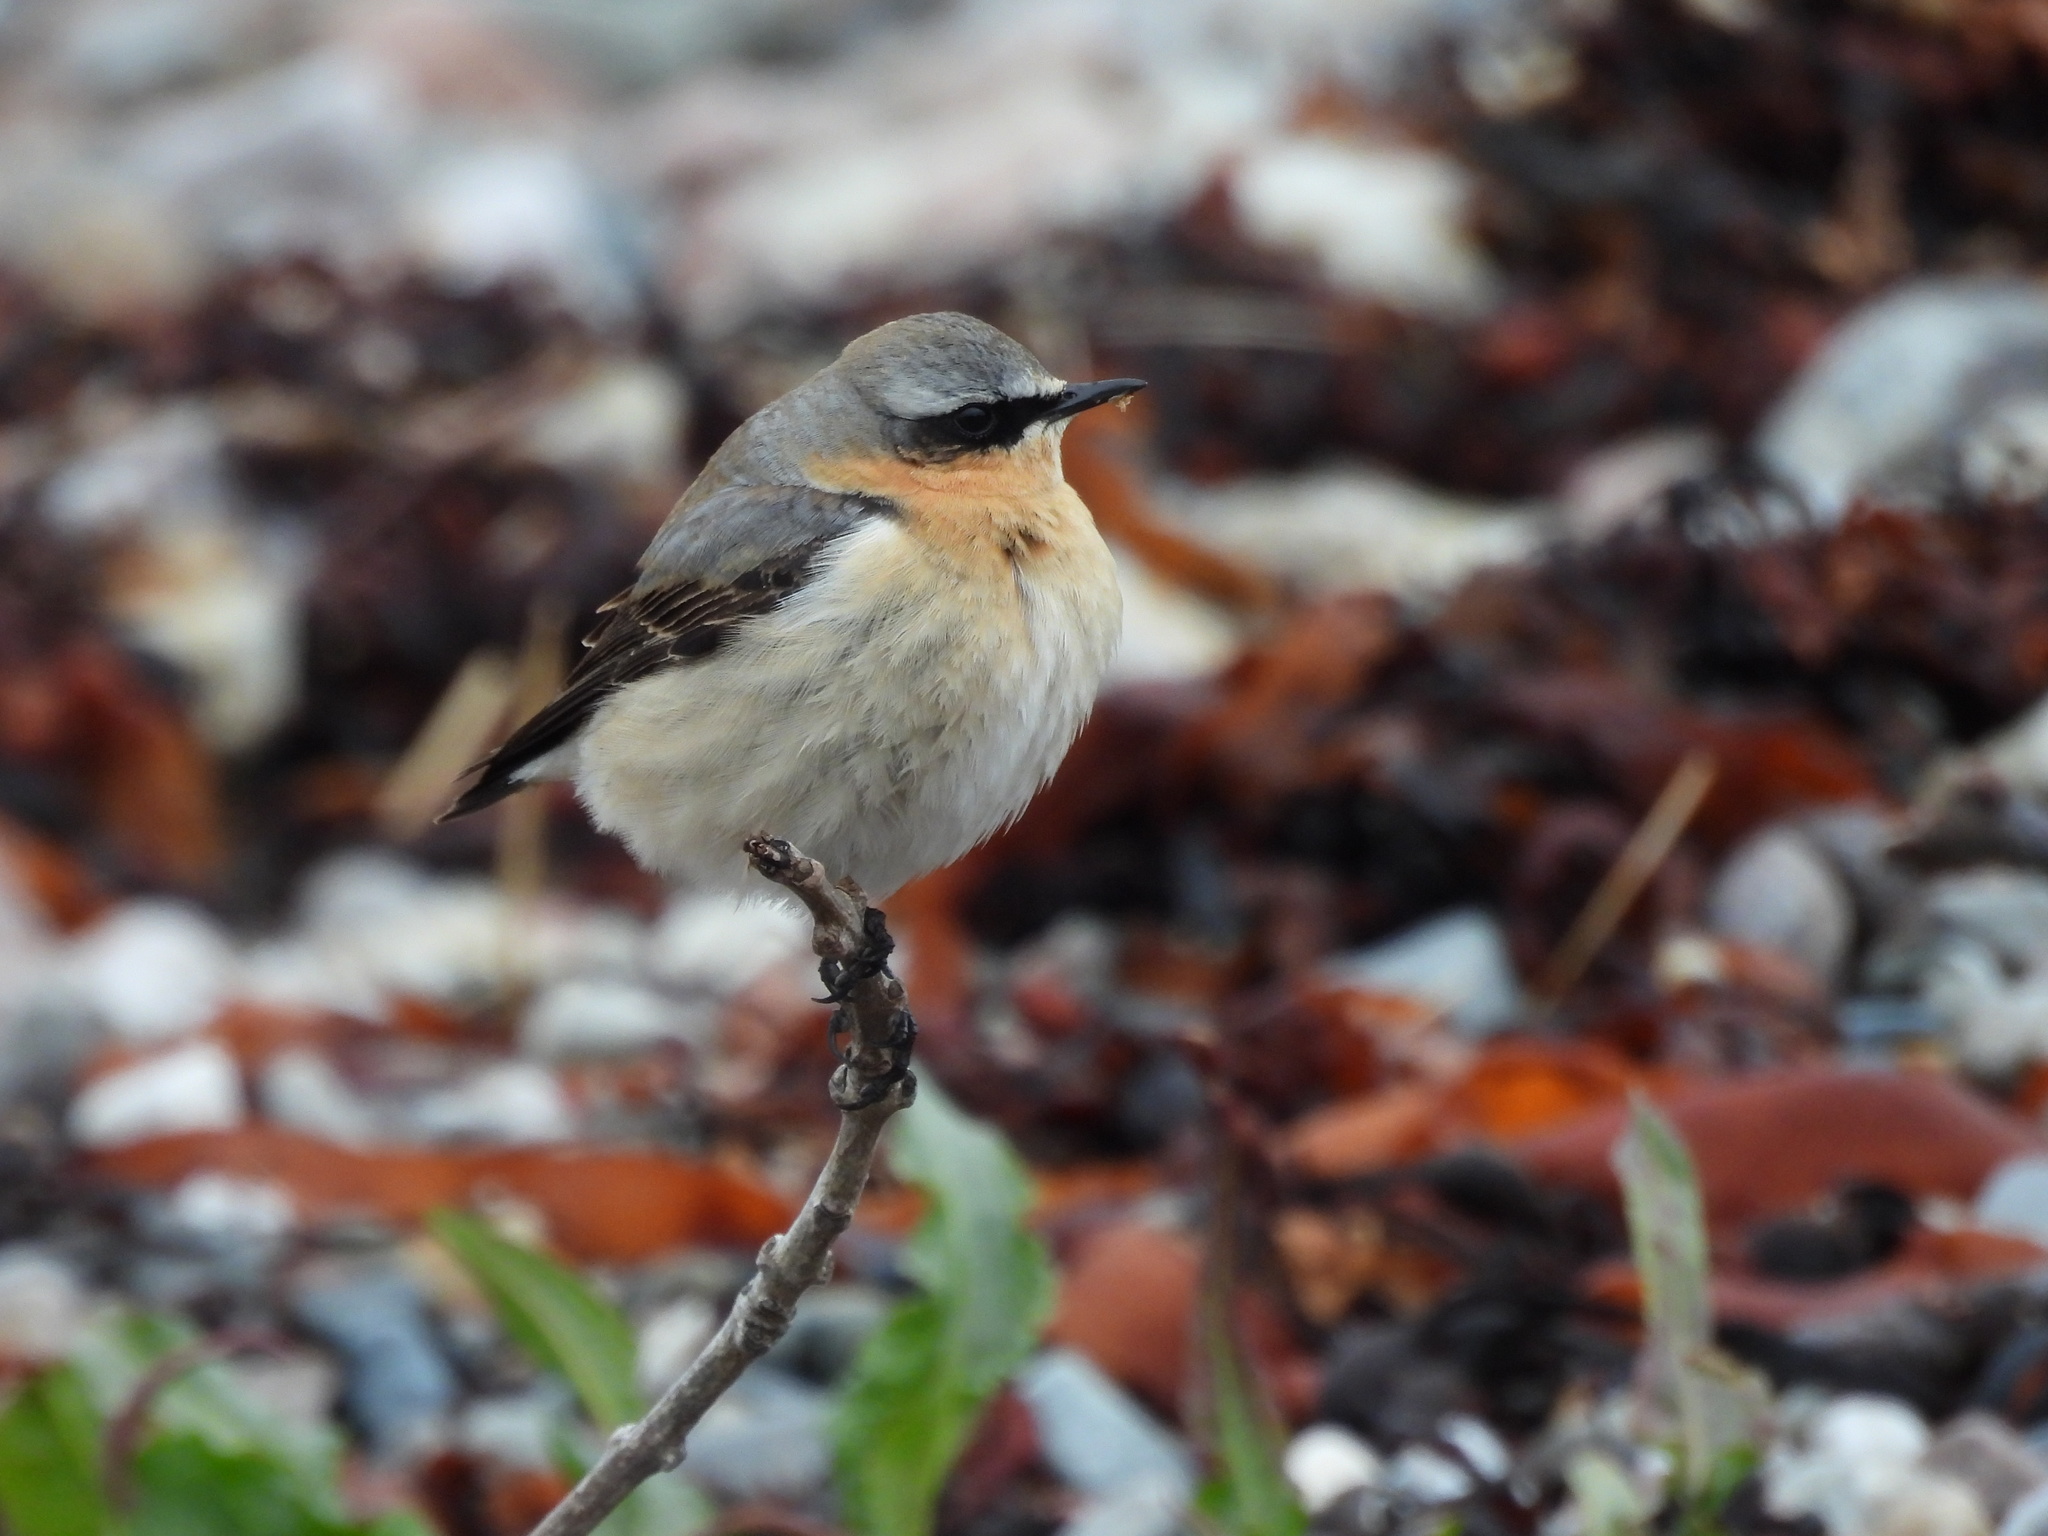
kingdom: Animalia
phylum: Chordata
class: Aves
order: Passeriformes
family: Muscicapidae
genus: Oenanthe
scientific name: Oenanthe oenanthe
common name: Northern wheatear
